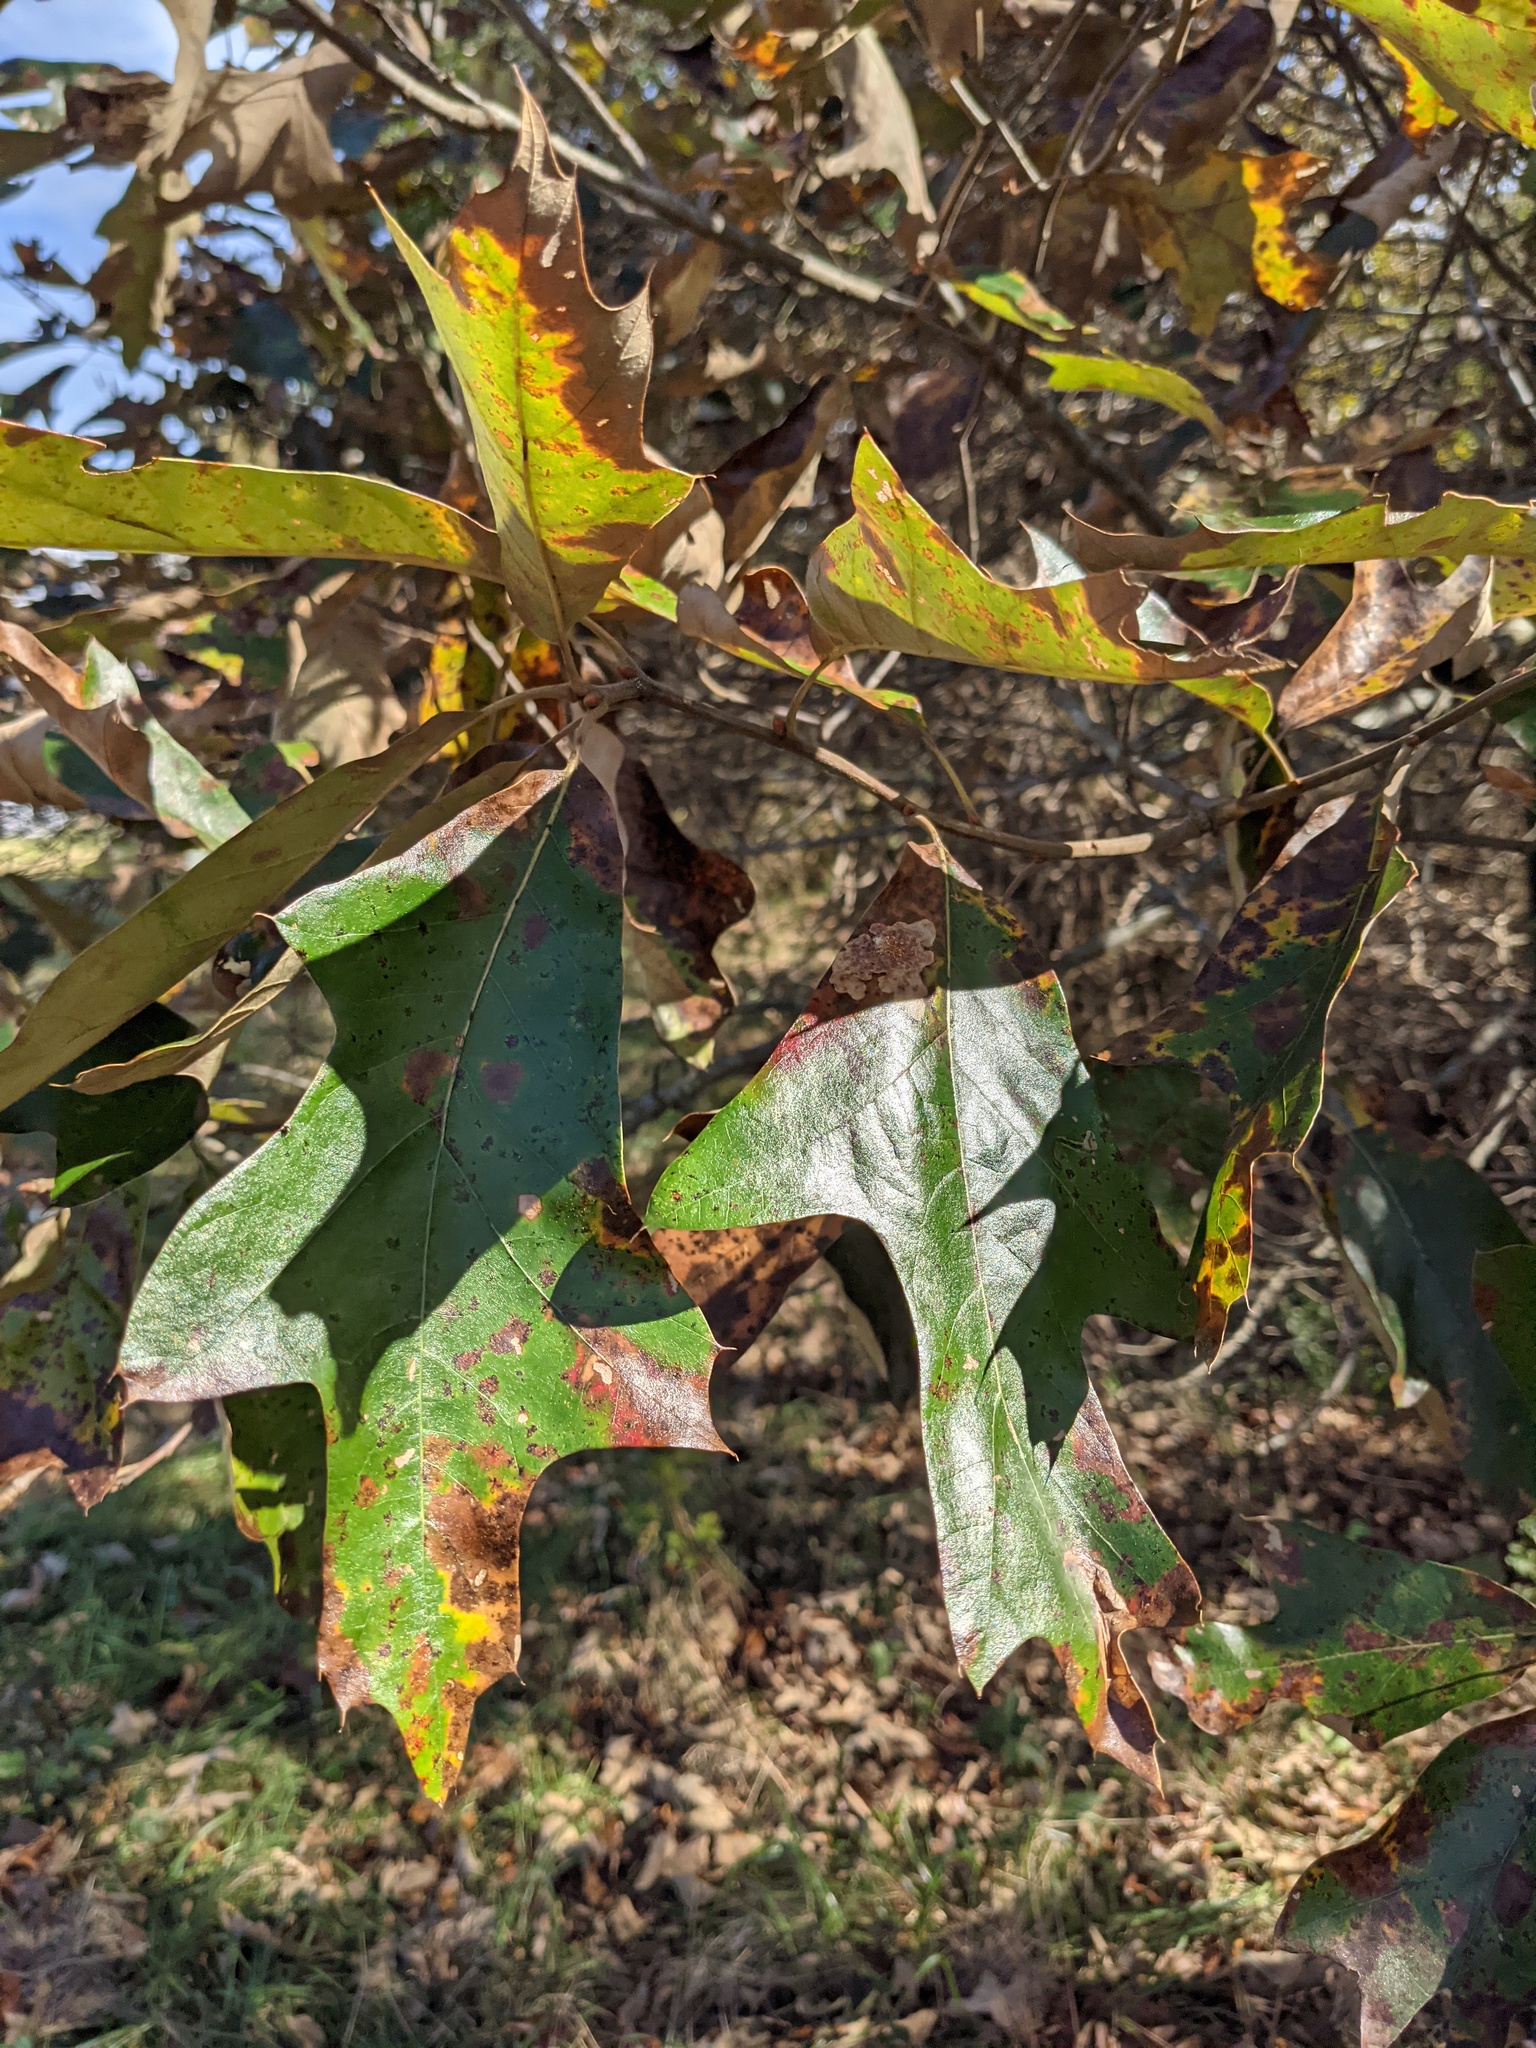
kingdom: Plantae
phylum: Tracheophyta
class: Magnoliopsida
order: Fagales
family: Fagaceae
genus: Quercus
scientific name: Quercus falcata
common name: Southern red oak
